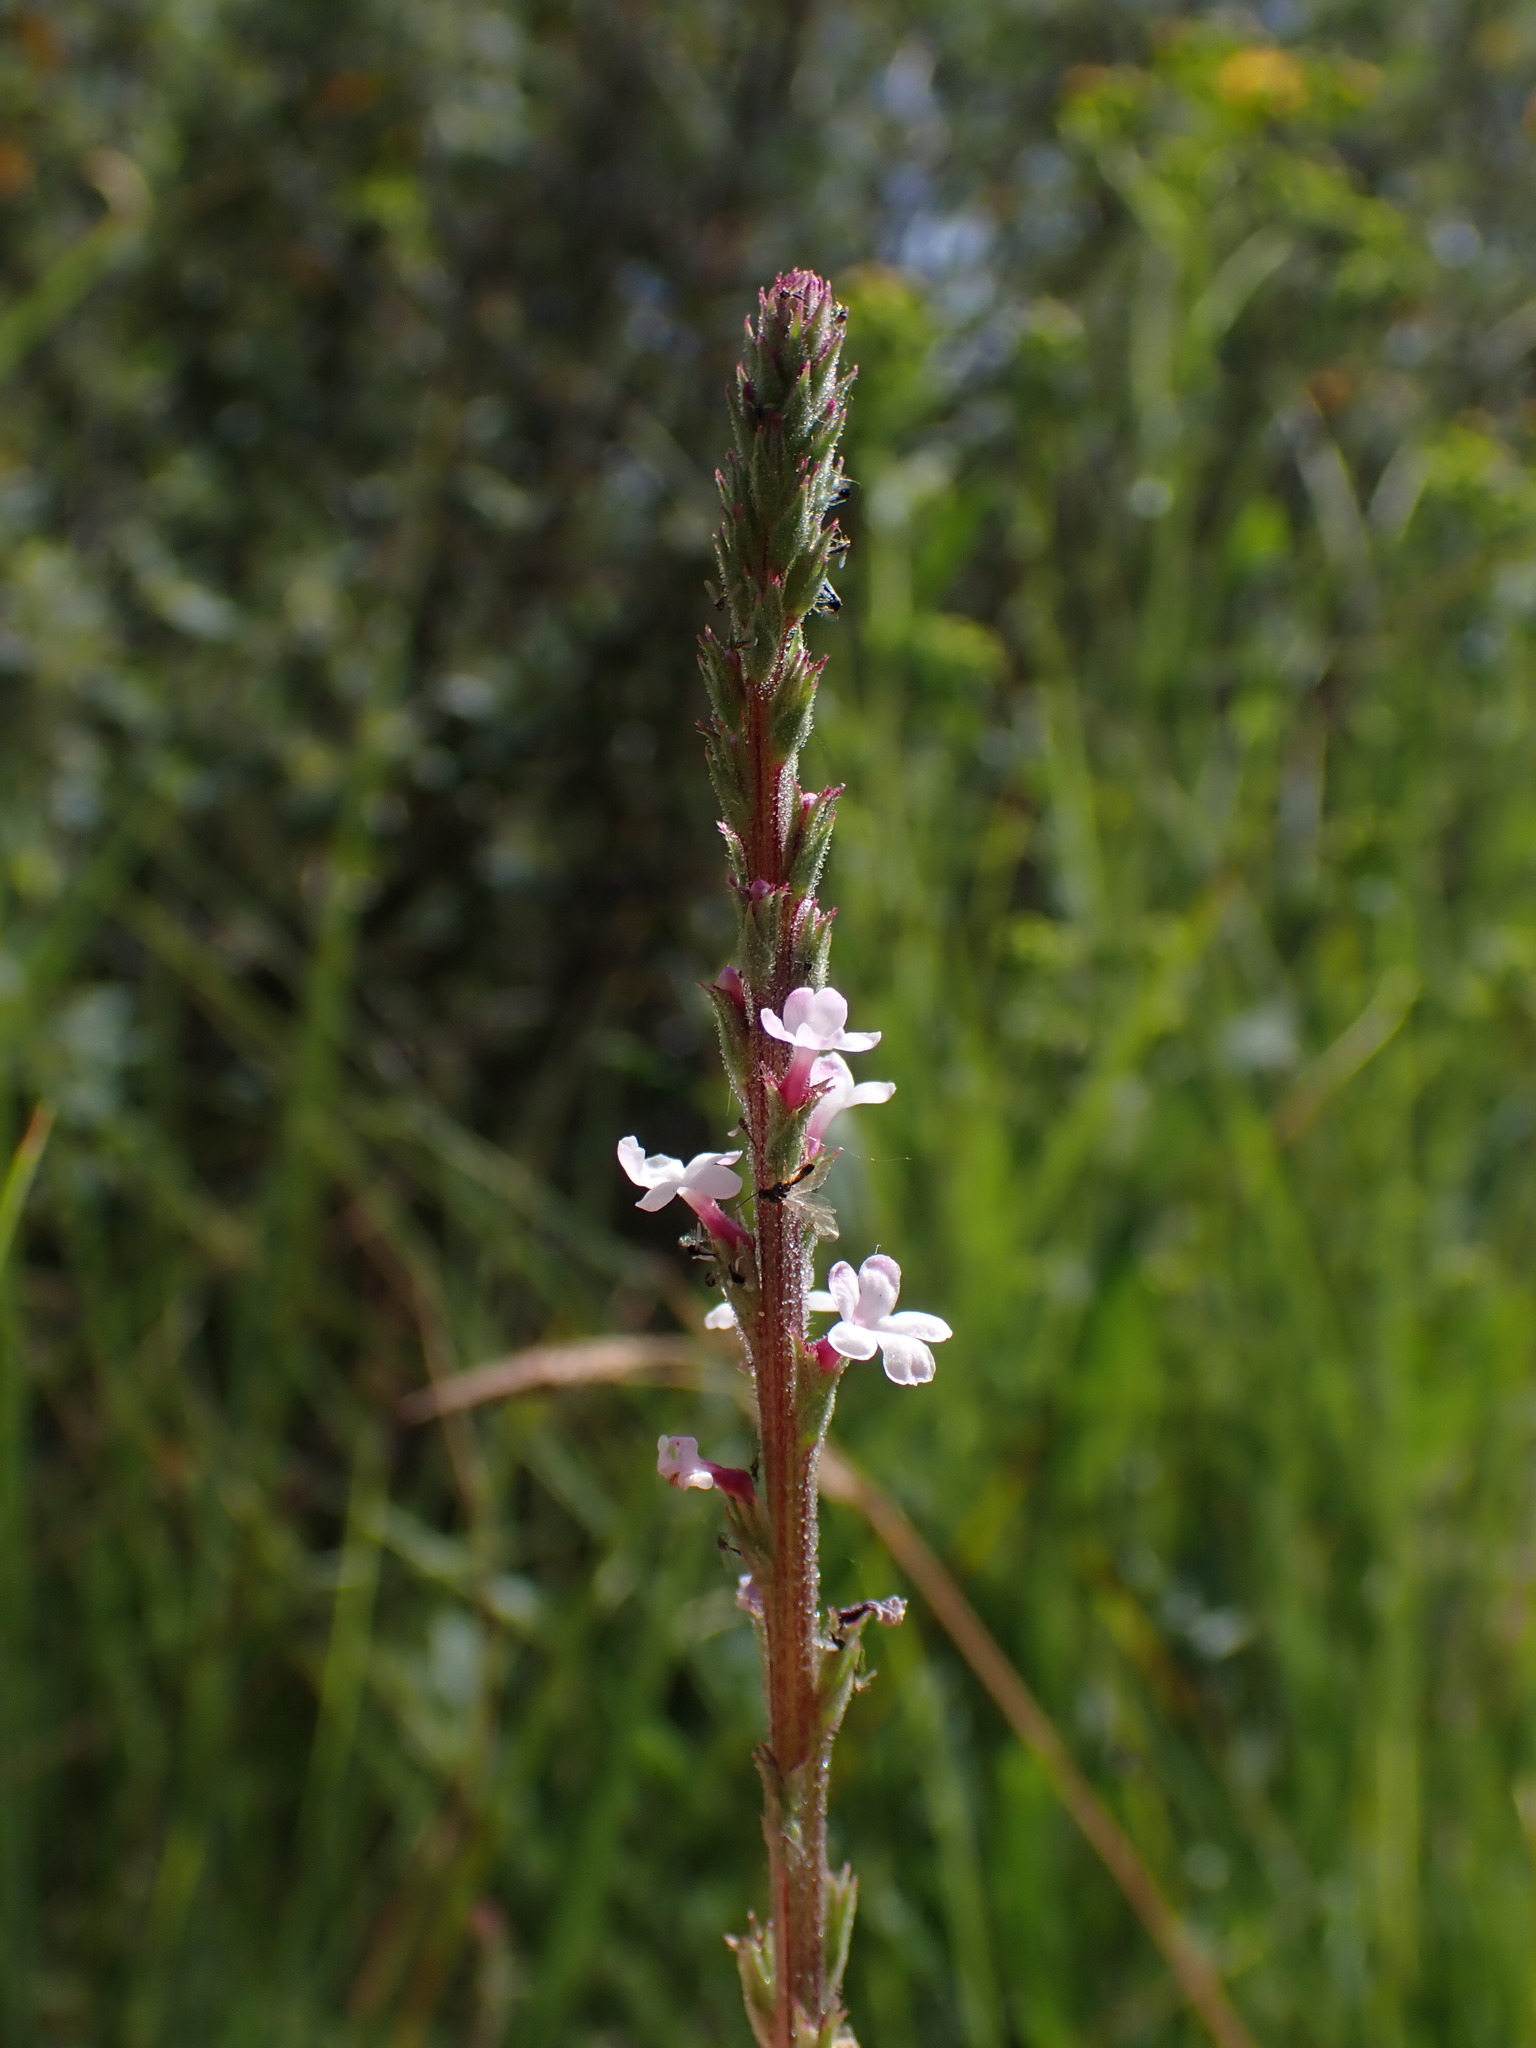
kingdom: Plantae
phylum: Tracheophyta
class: Magnoliopsida
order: Lamiales
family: Verbenaceae
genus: Verbena
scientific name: Verbena californica
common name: California vervain
